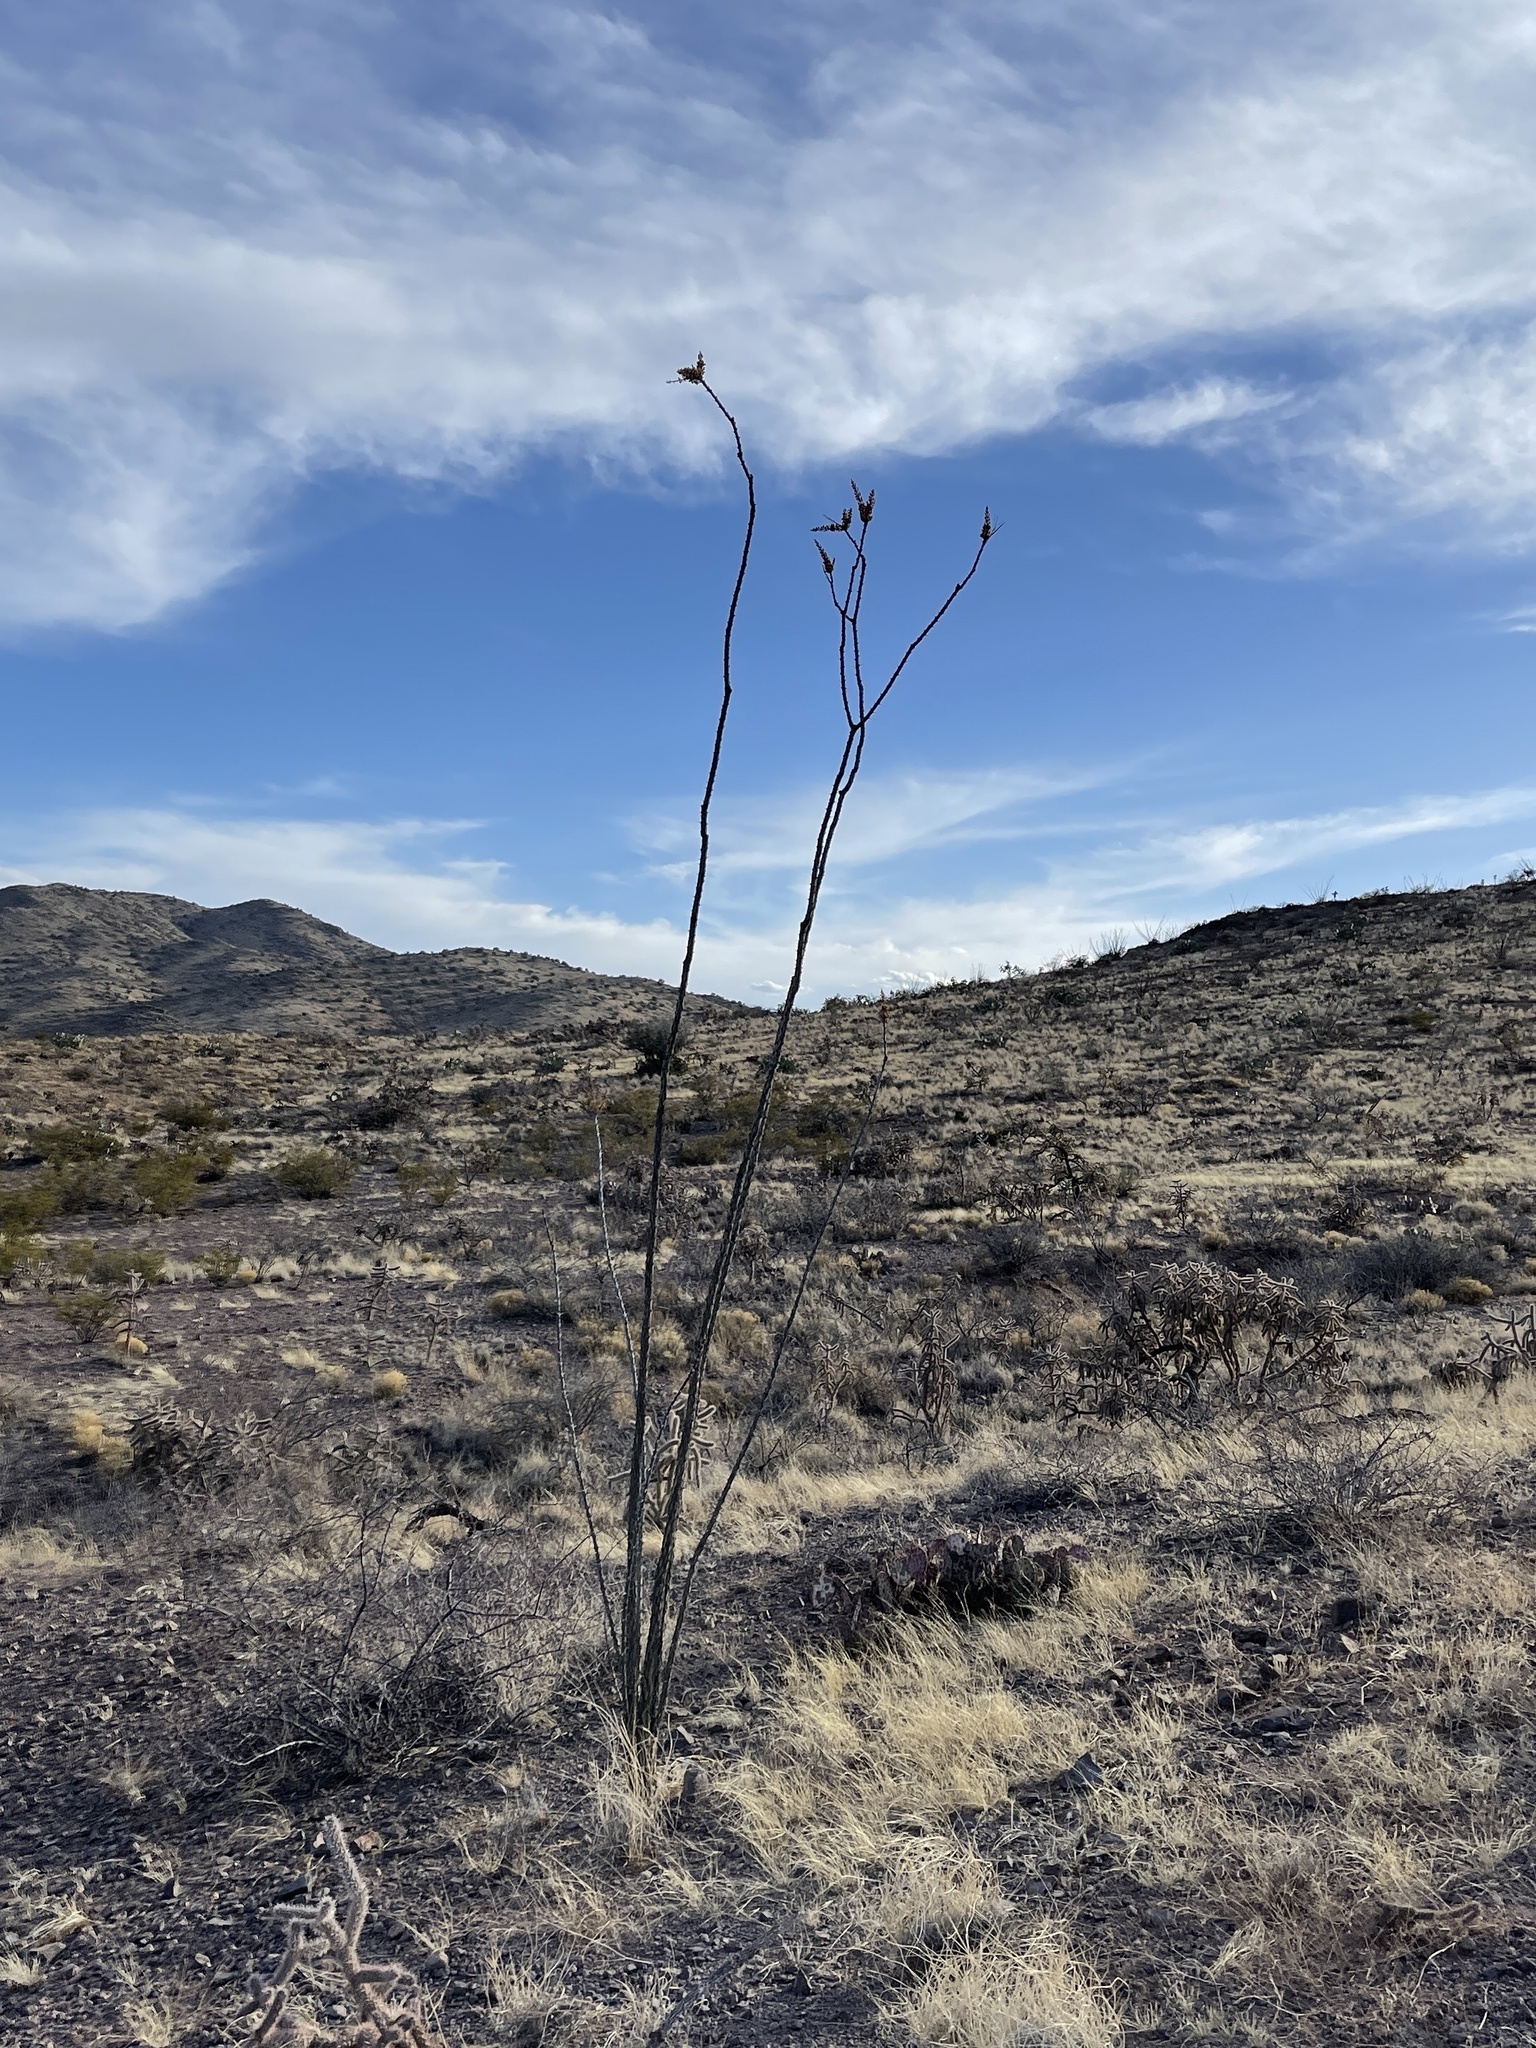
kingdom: Plantae
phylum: Tracheophyta
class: Magnoliopsida
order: Ericales
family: Fouquieriaceae
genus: Fouquieria
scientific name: Fouquieria splendens
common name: Vine-cactus
